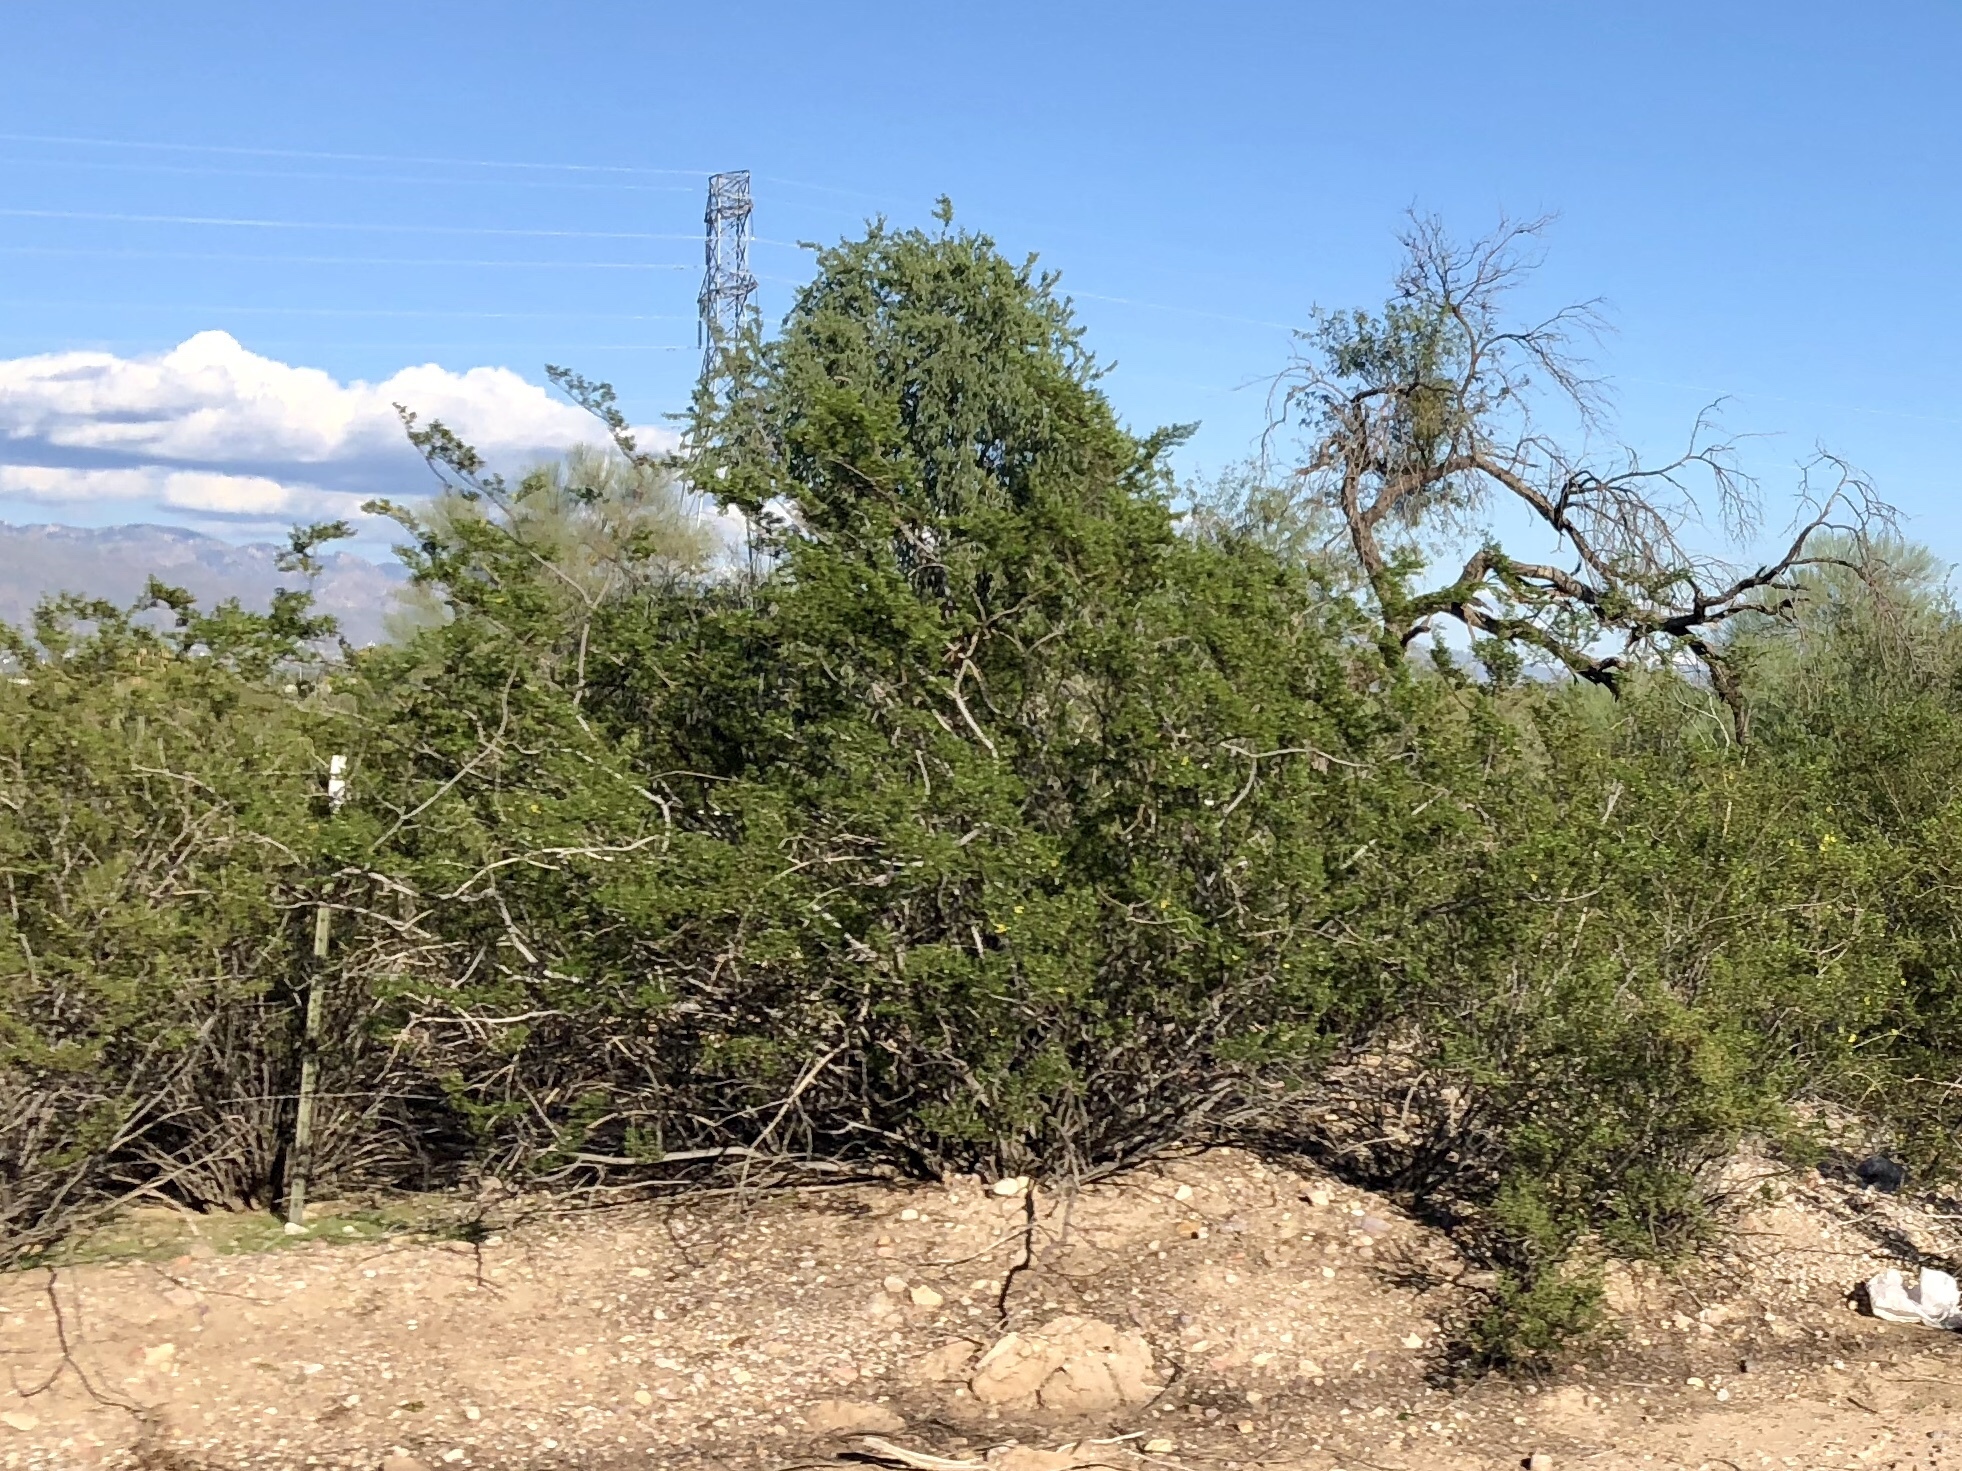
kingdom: Plantae
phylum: Tracheophyta
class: Magnoliopsida
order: Zygophyllales
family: Zygophyllaceae
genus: Larrea
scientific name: Larrea tridentata
